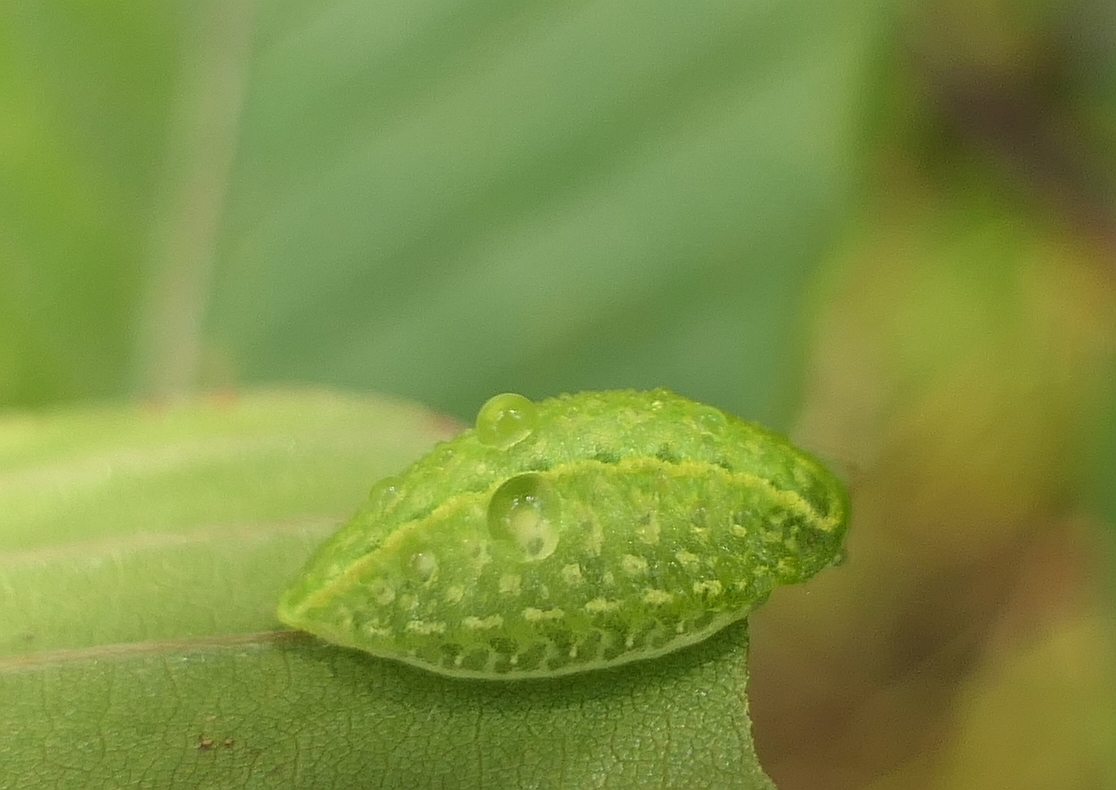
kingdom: Animalia
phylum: Arthropoda
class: Insecta
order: Lepidoptera
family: Limacodidae
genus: Lithacodes
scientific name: Lithacodes fasciola
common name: Yellow-shouldered slug moth
